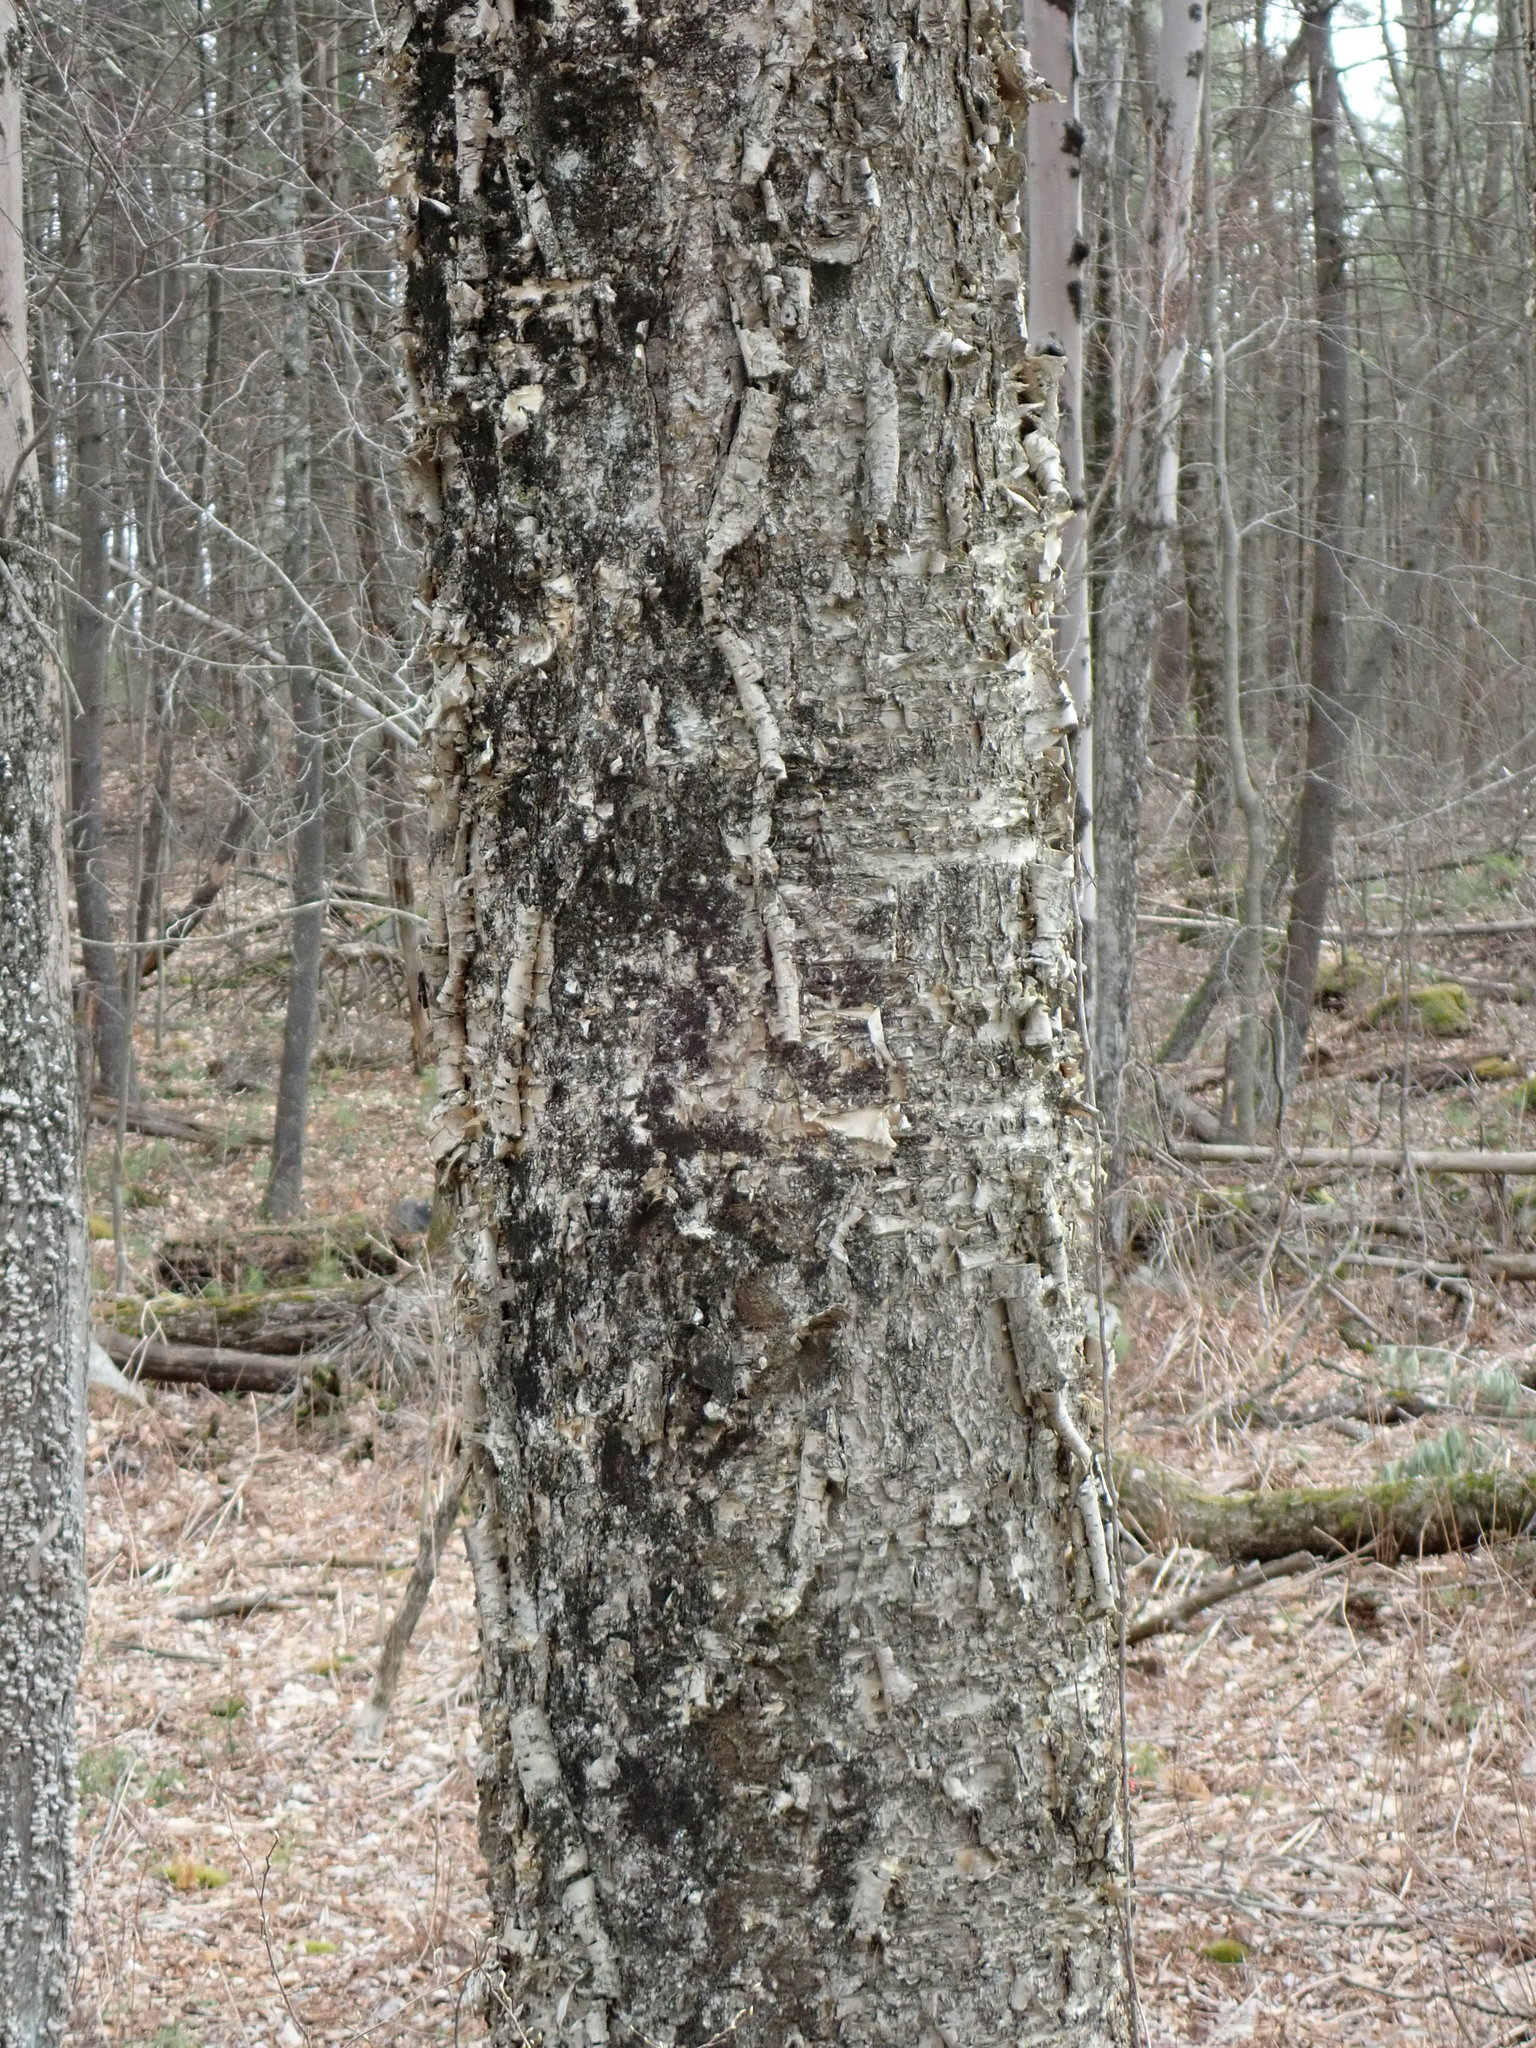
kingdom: Plantae
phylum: Tracheophyta
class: Magnoliopsida
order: Fagales
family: Betulaceae
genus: Betula
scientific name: Betula alleghaniensis
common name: Yellow birch
